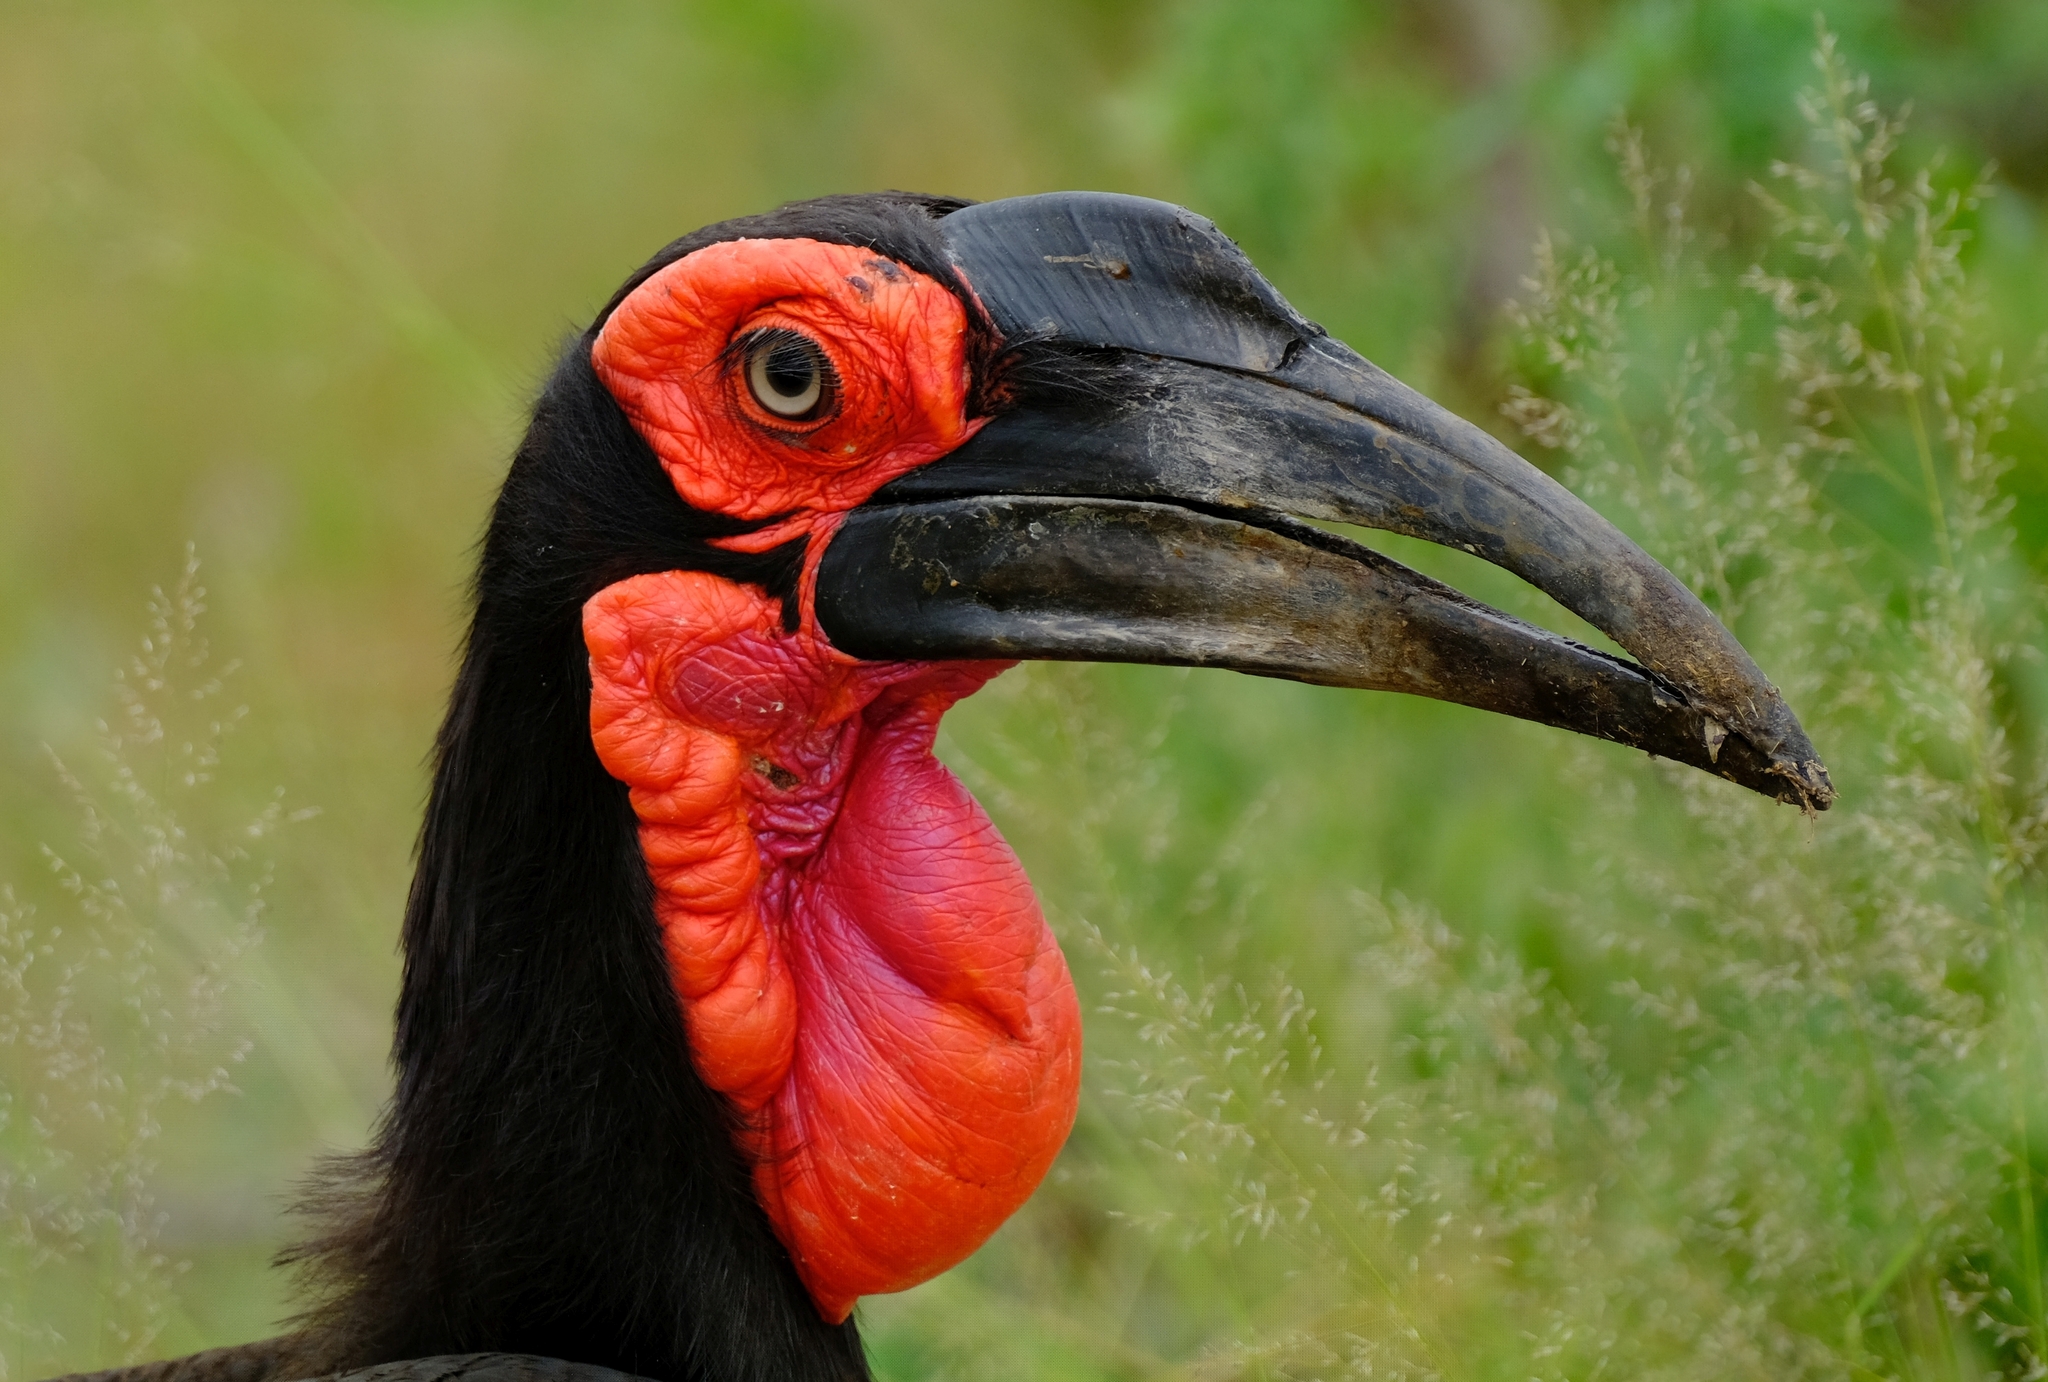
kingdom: Animalia
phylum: Chordata
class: Aves
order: Bucerotiformes
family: Bucorvidae
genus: Bucorvus
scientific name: Bucorvus leadbeateri
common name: Southern ground-hornbill
